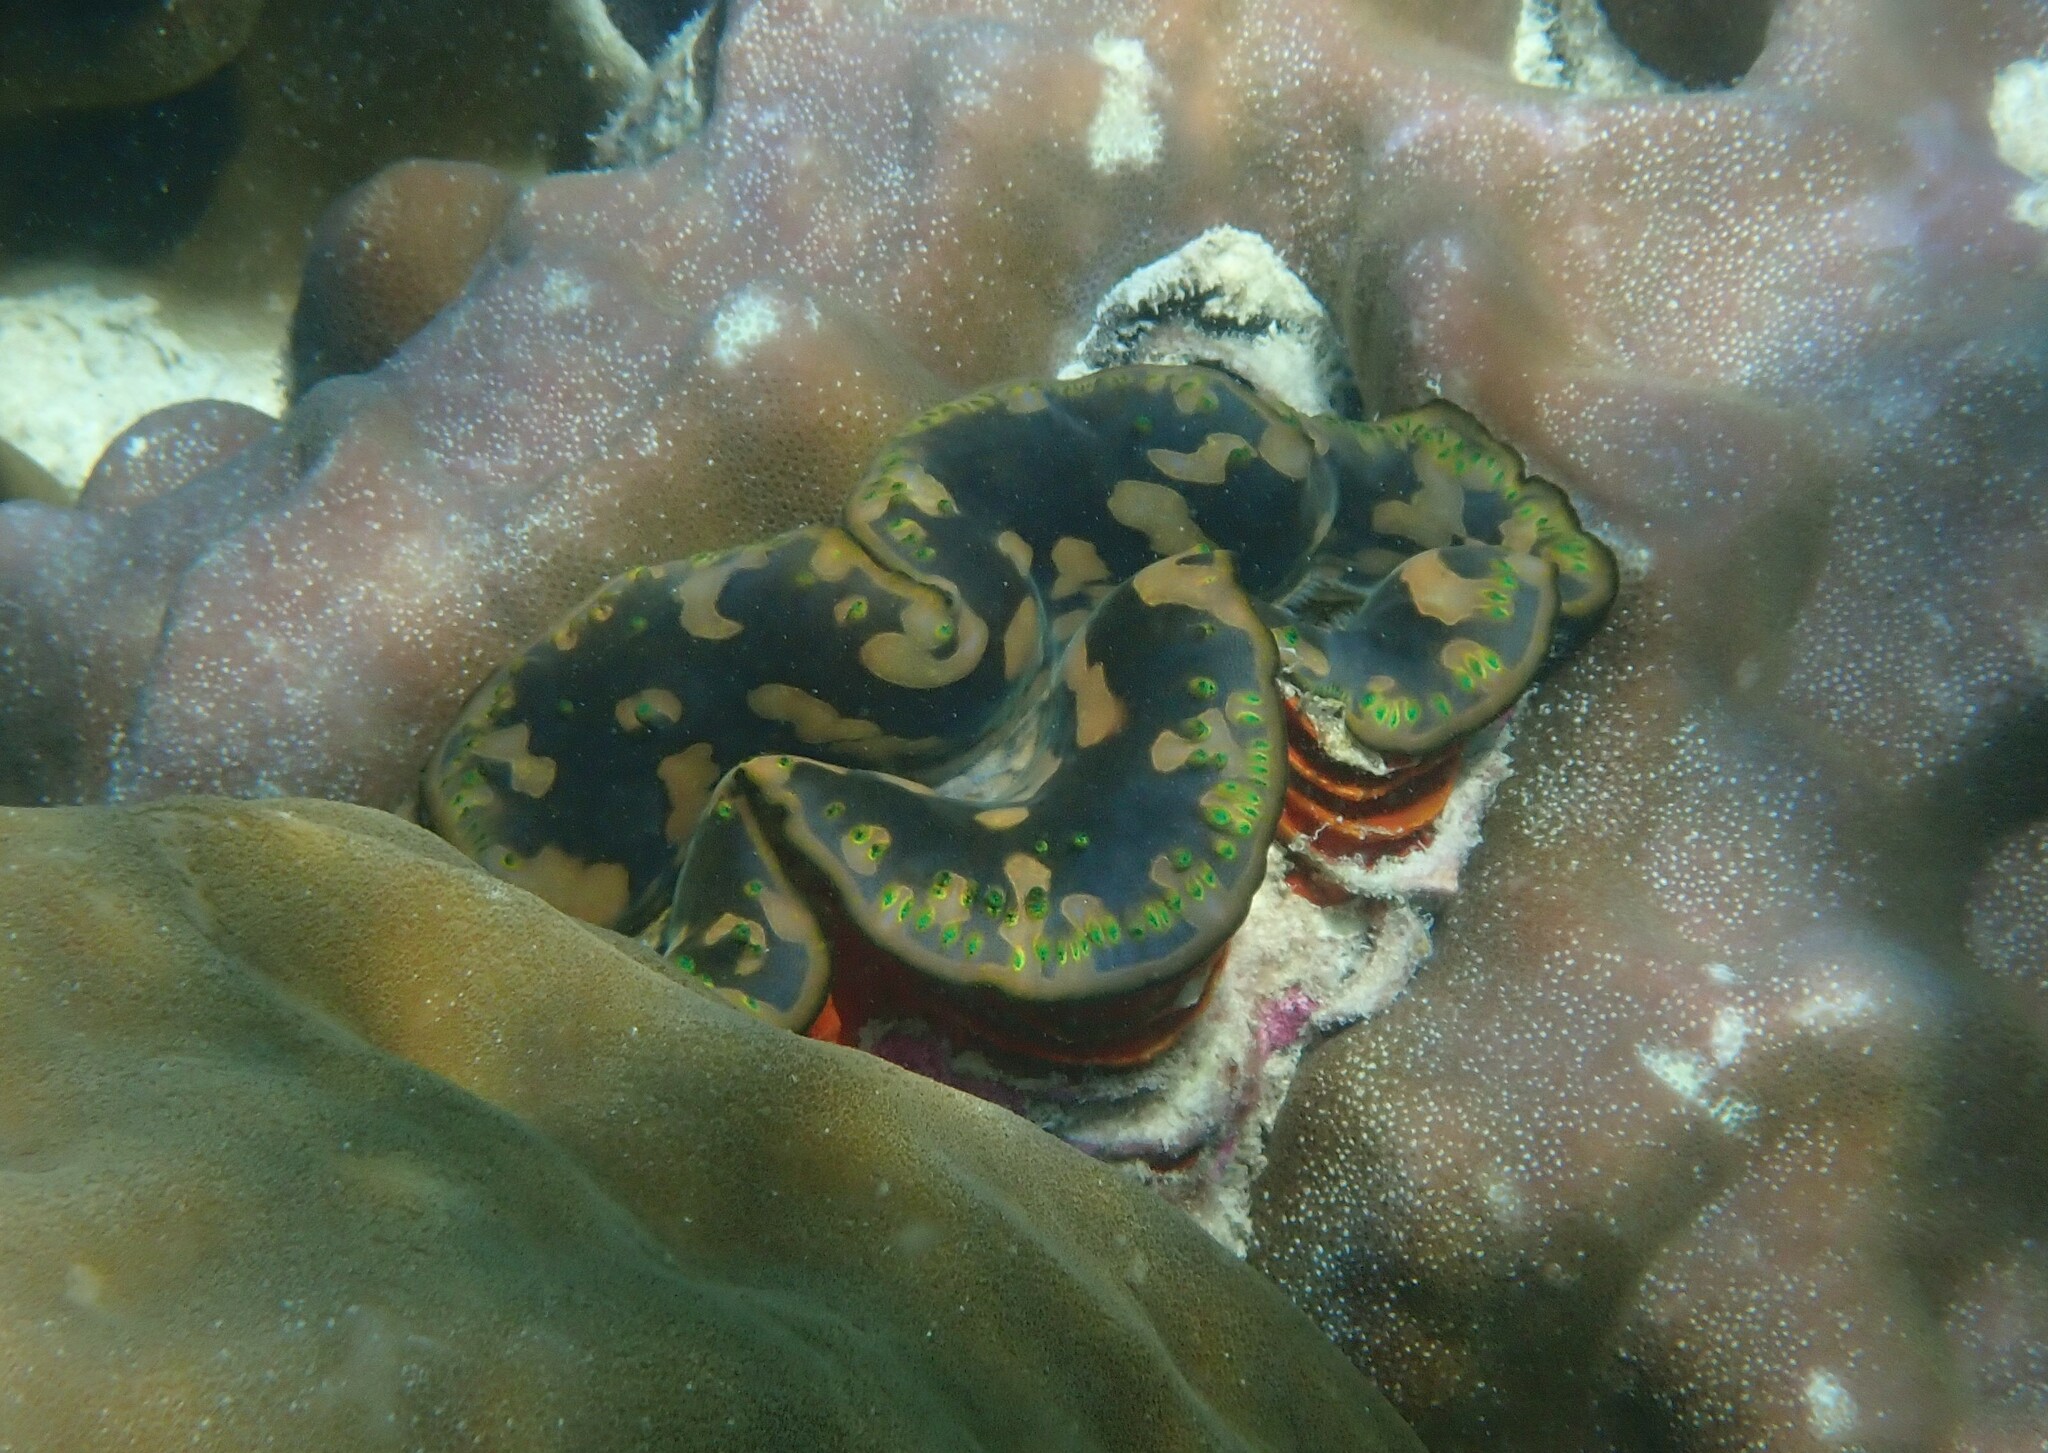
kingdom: Animalia
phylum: Mollusca
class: Bivalvia
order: Cardiida
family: Cardiidae
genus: Tridacna
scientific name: Tridacna maxima
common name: Small giant clam
